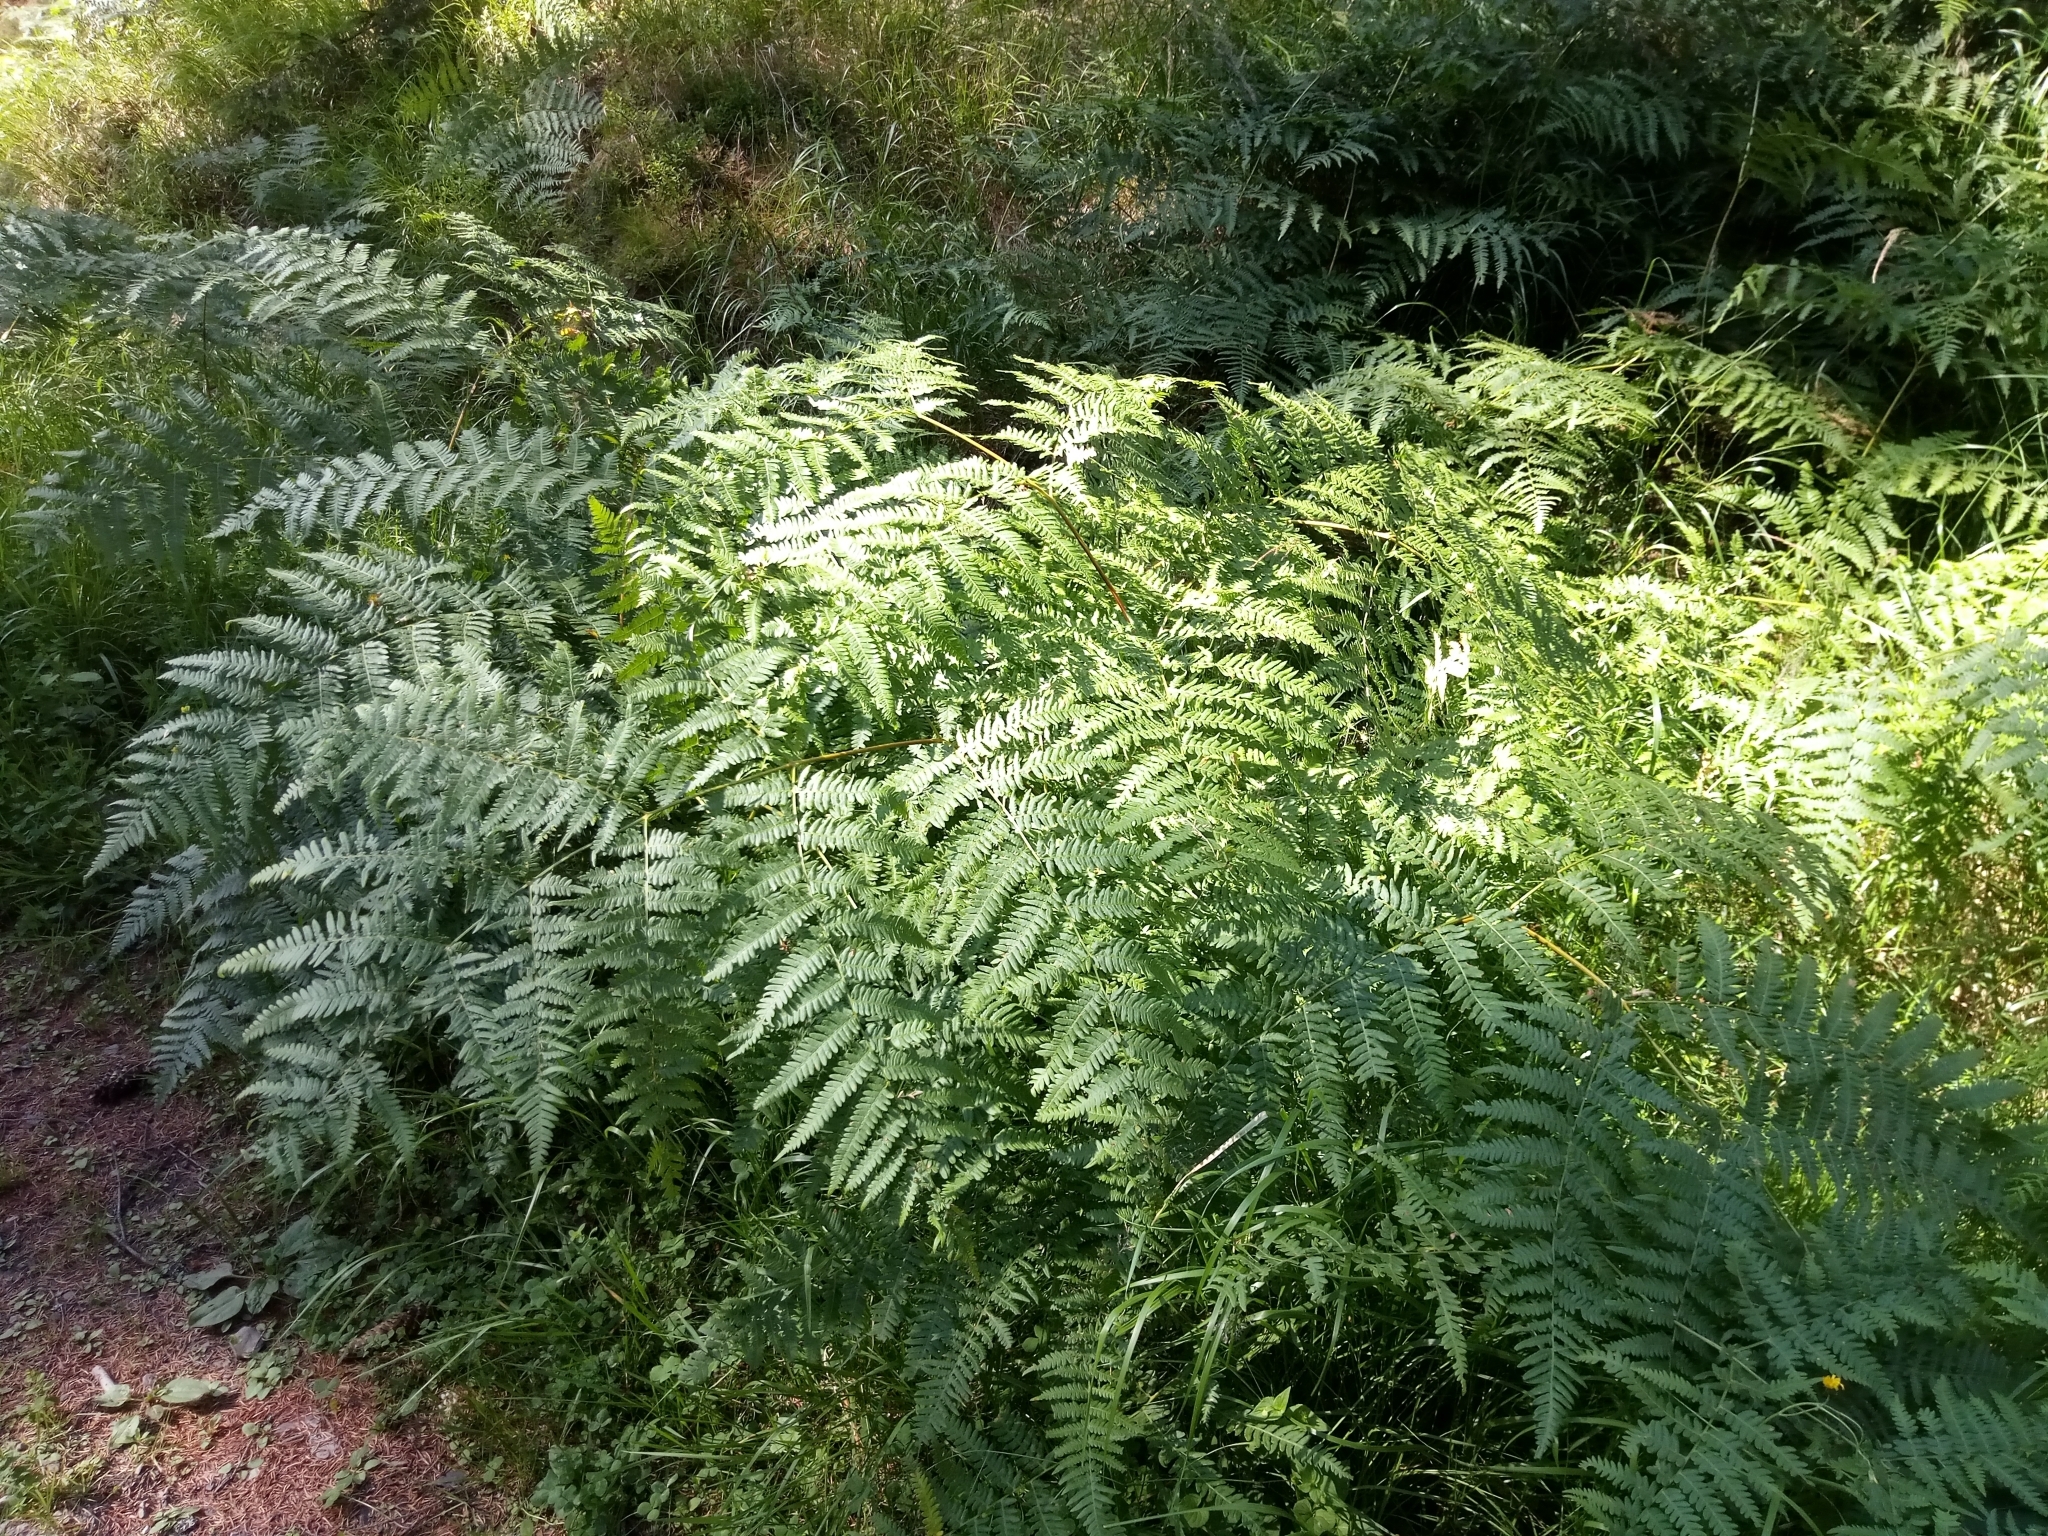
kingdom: Plantae
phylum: Tracheophyta
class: Polypodiopsida
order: Polypodiales
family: Dennstaedtiaceae
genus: Pteridium
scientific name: Pteridium aquilinum
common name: Bracken
